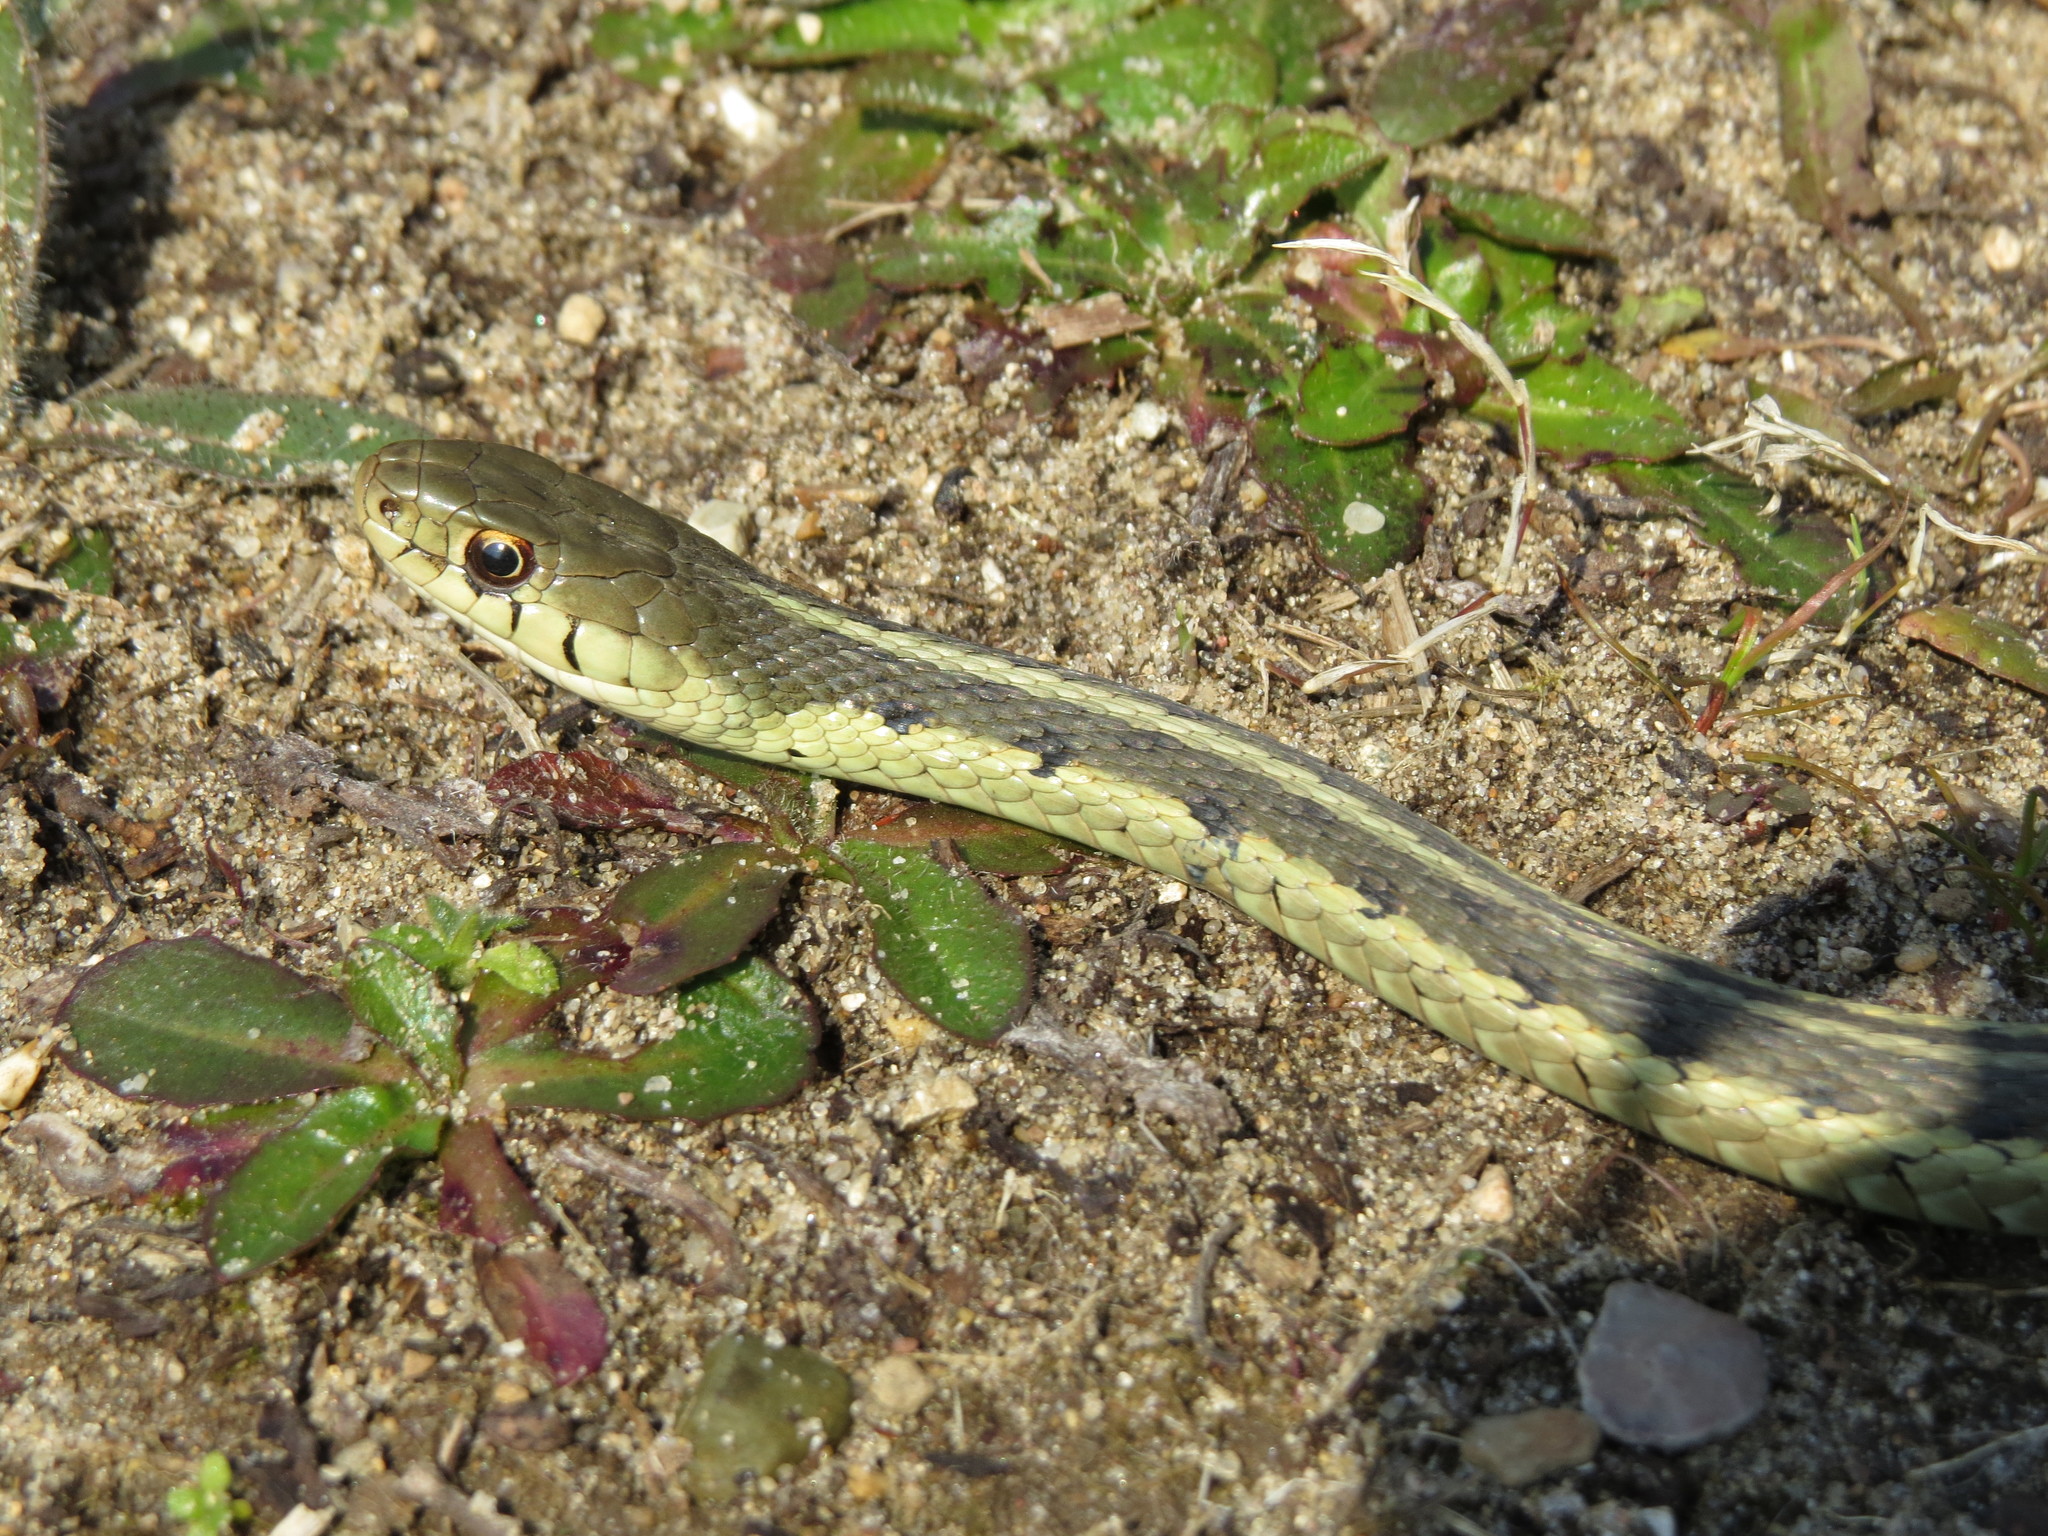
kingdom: Animalia
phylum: Chordata
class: Squamata
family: Colubridae
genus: Thamnophis
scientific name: Thamnophis sirtalis
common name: Common garter snake
